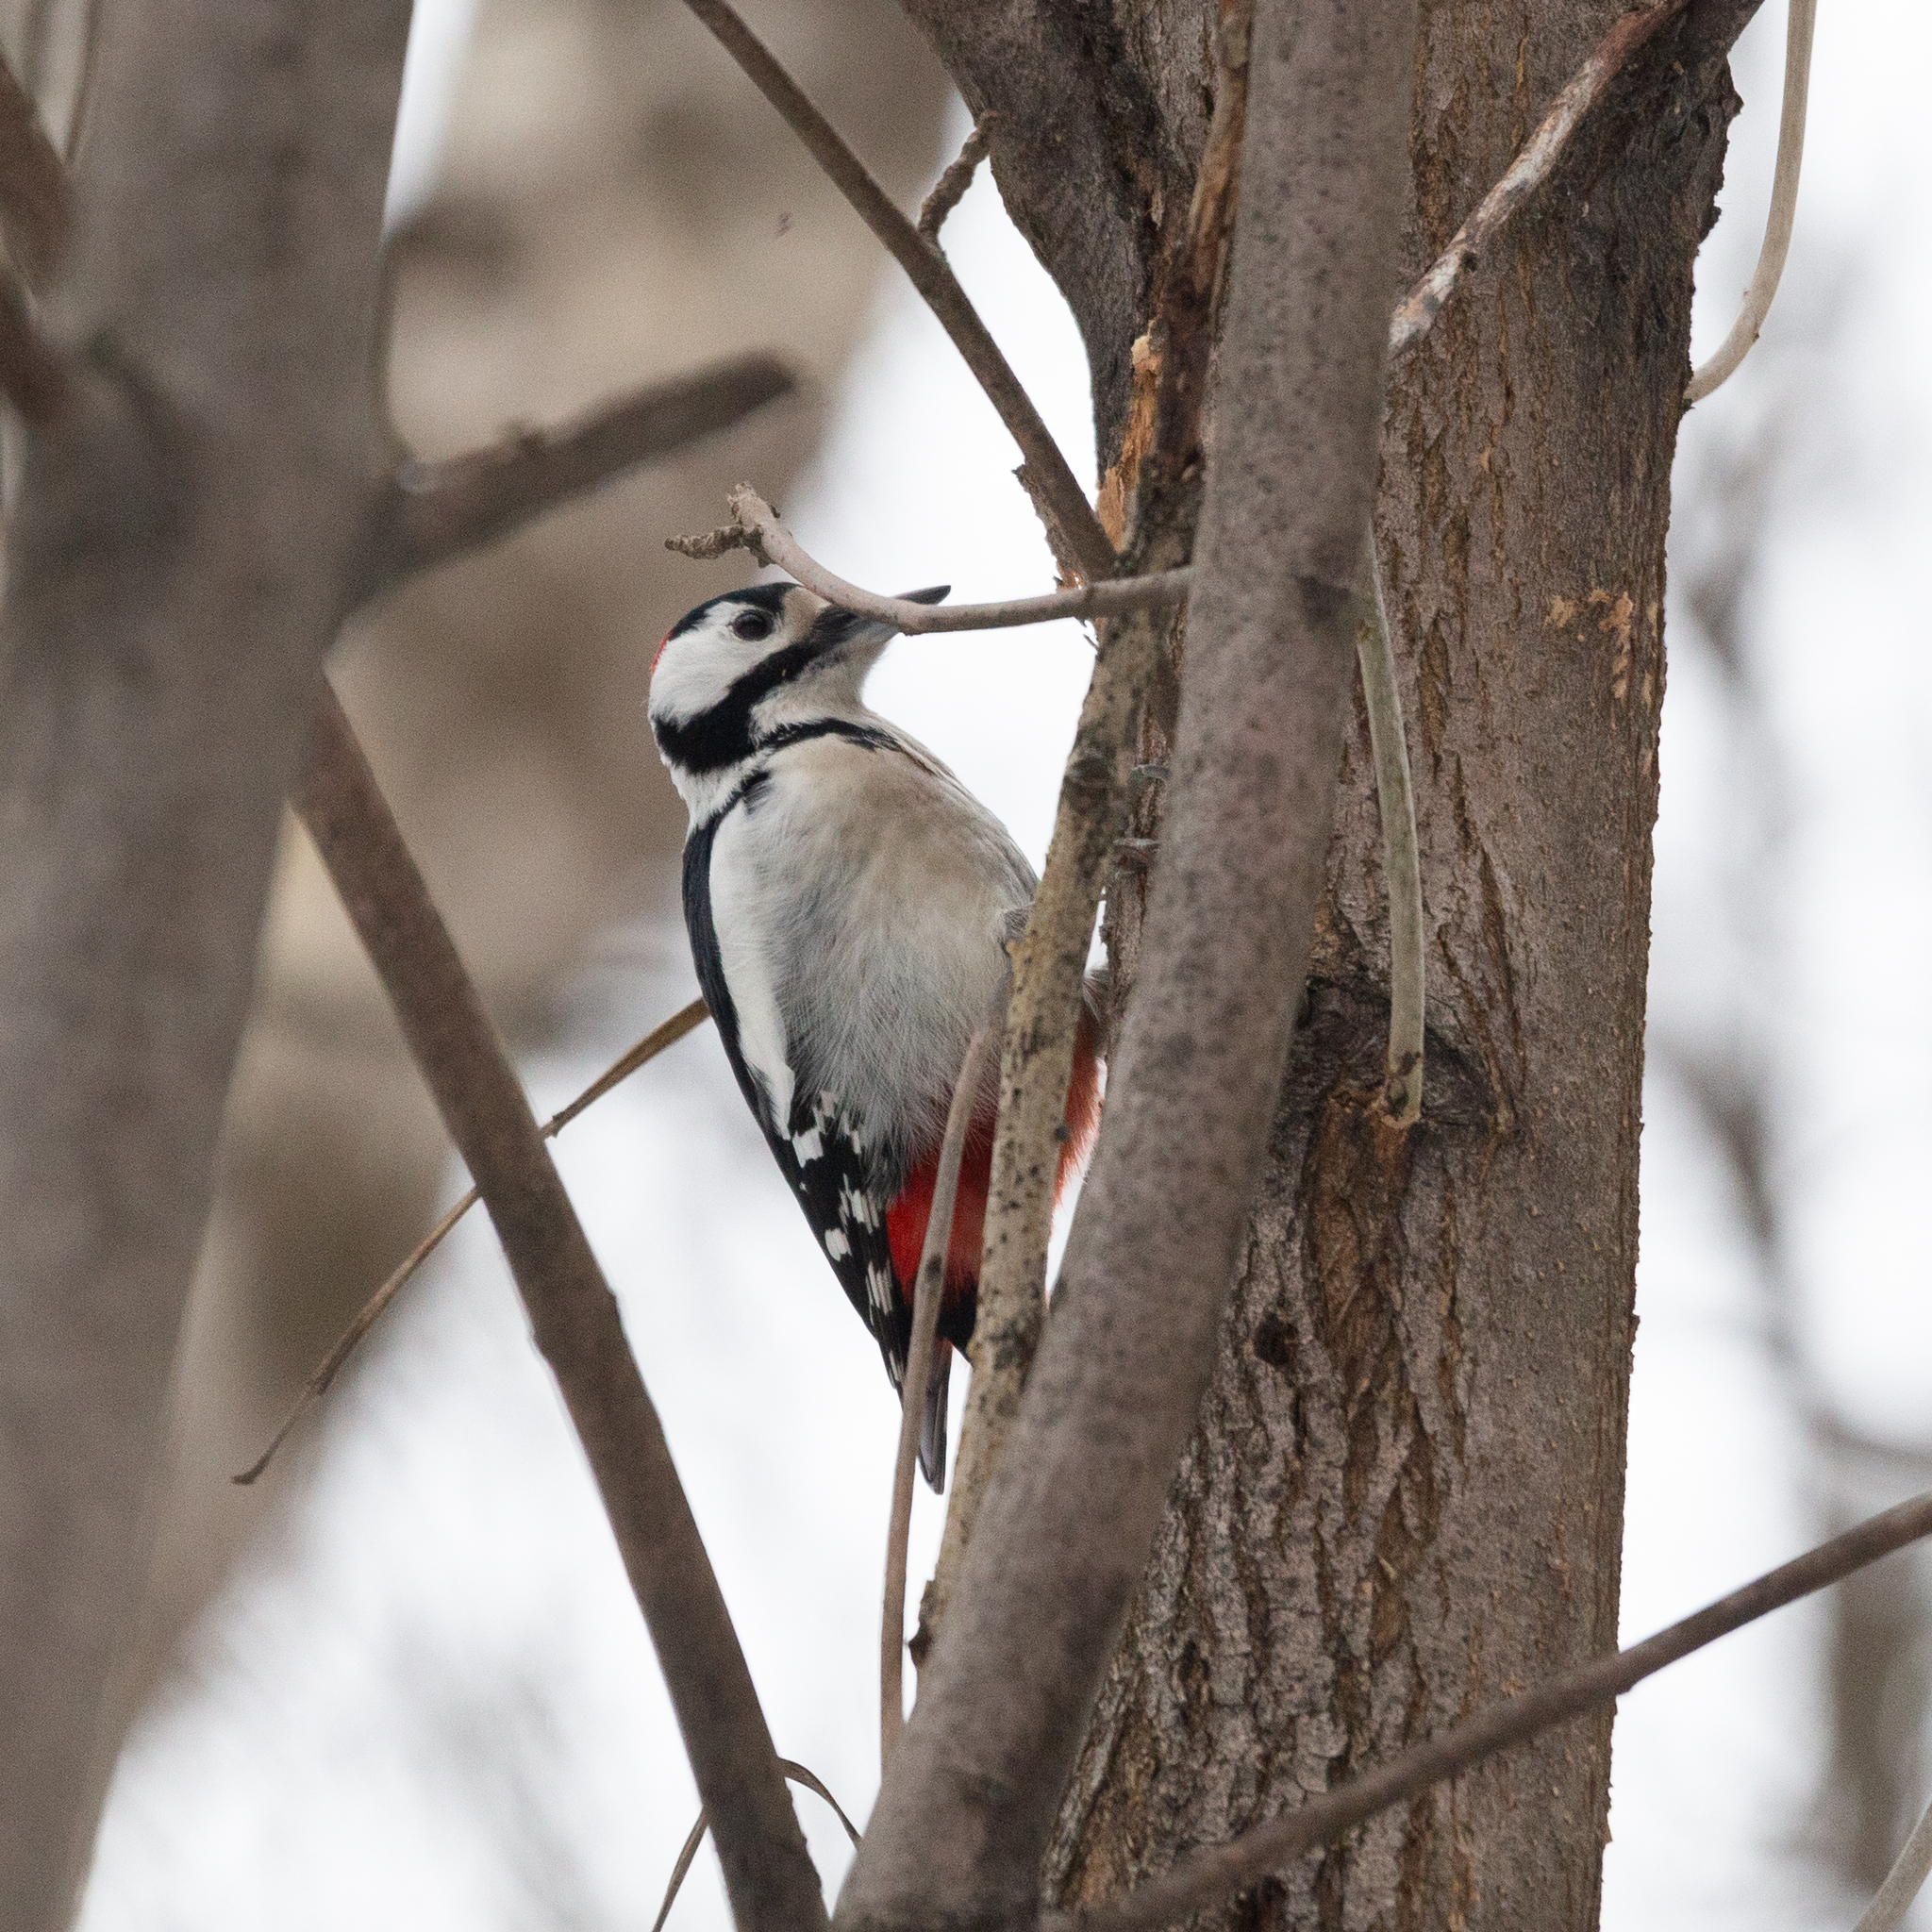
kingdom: Animalia
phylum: Chordata
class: Aves
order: Piciformes
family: Picidae
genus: Dendrocopos
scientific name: Dendrocopos major
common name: Great spotted woodpecker
